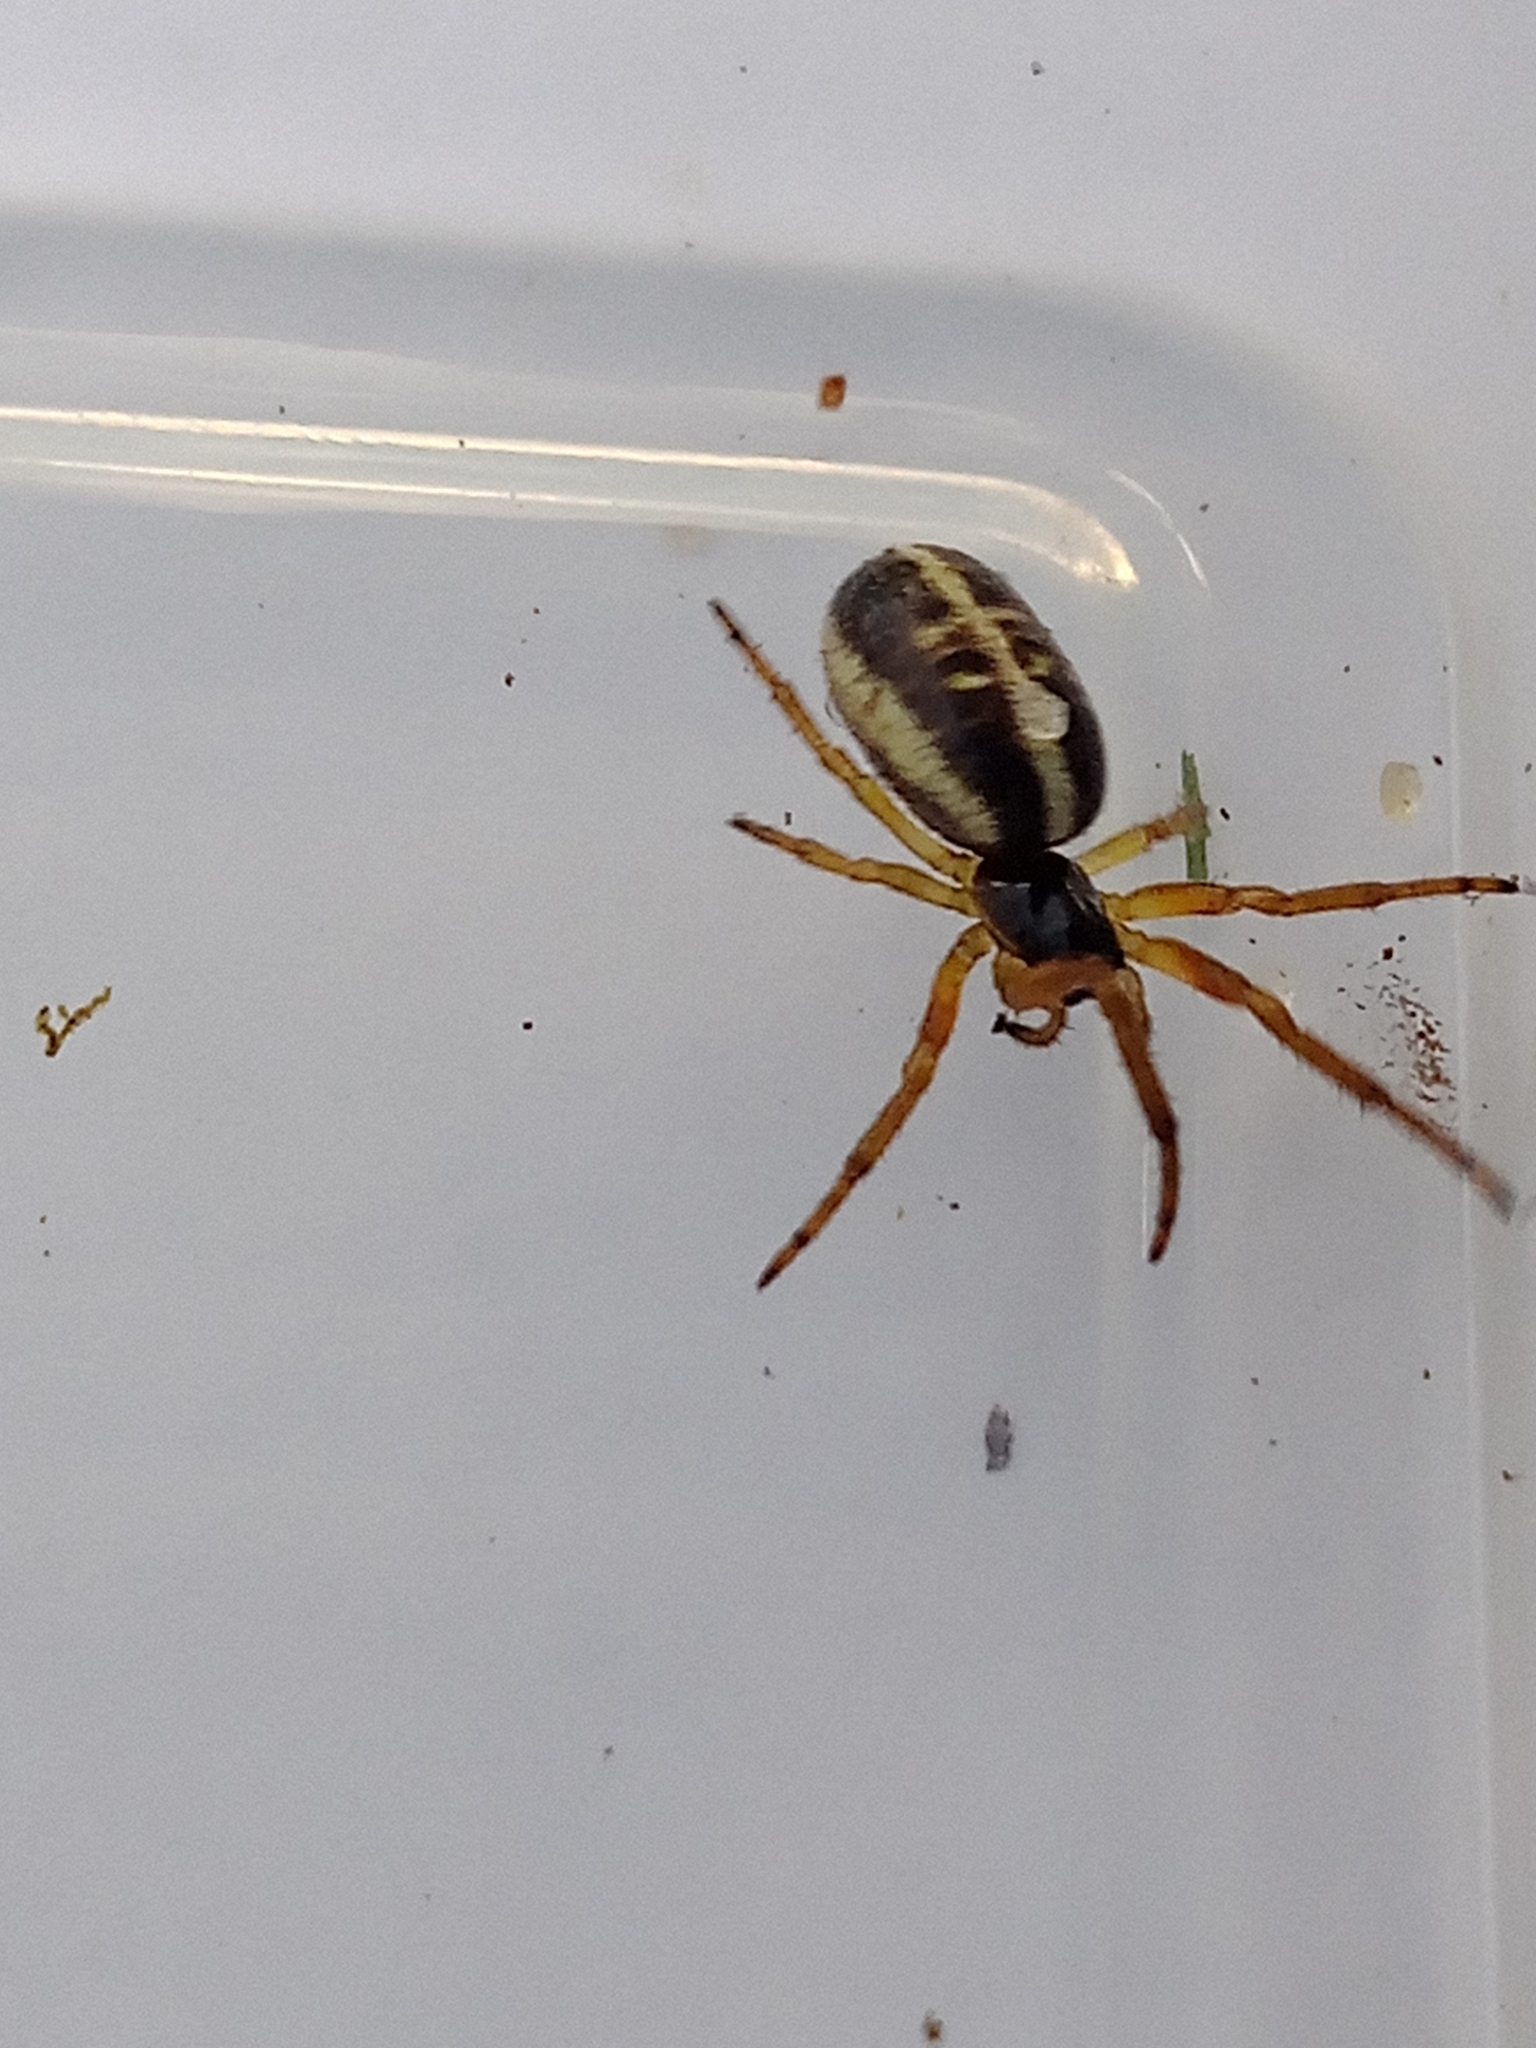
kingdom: Animalia
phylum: Arthropoda
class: Arachnida
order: Araneae
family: Araneidae
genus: Singa
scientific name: Singa nitidula
